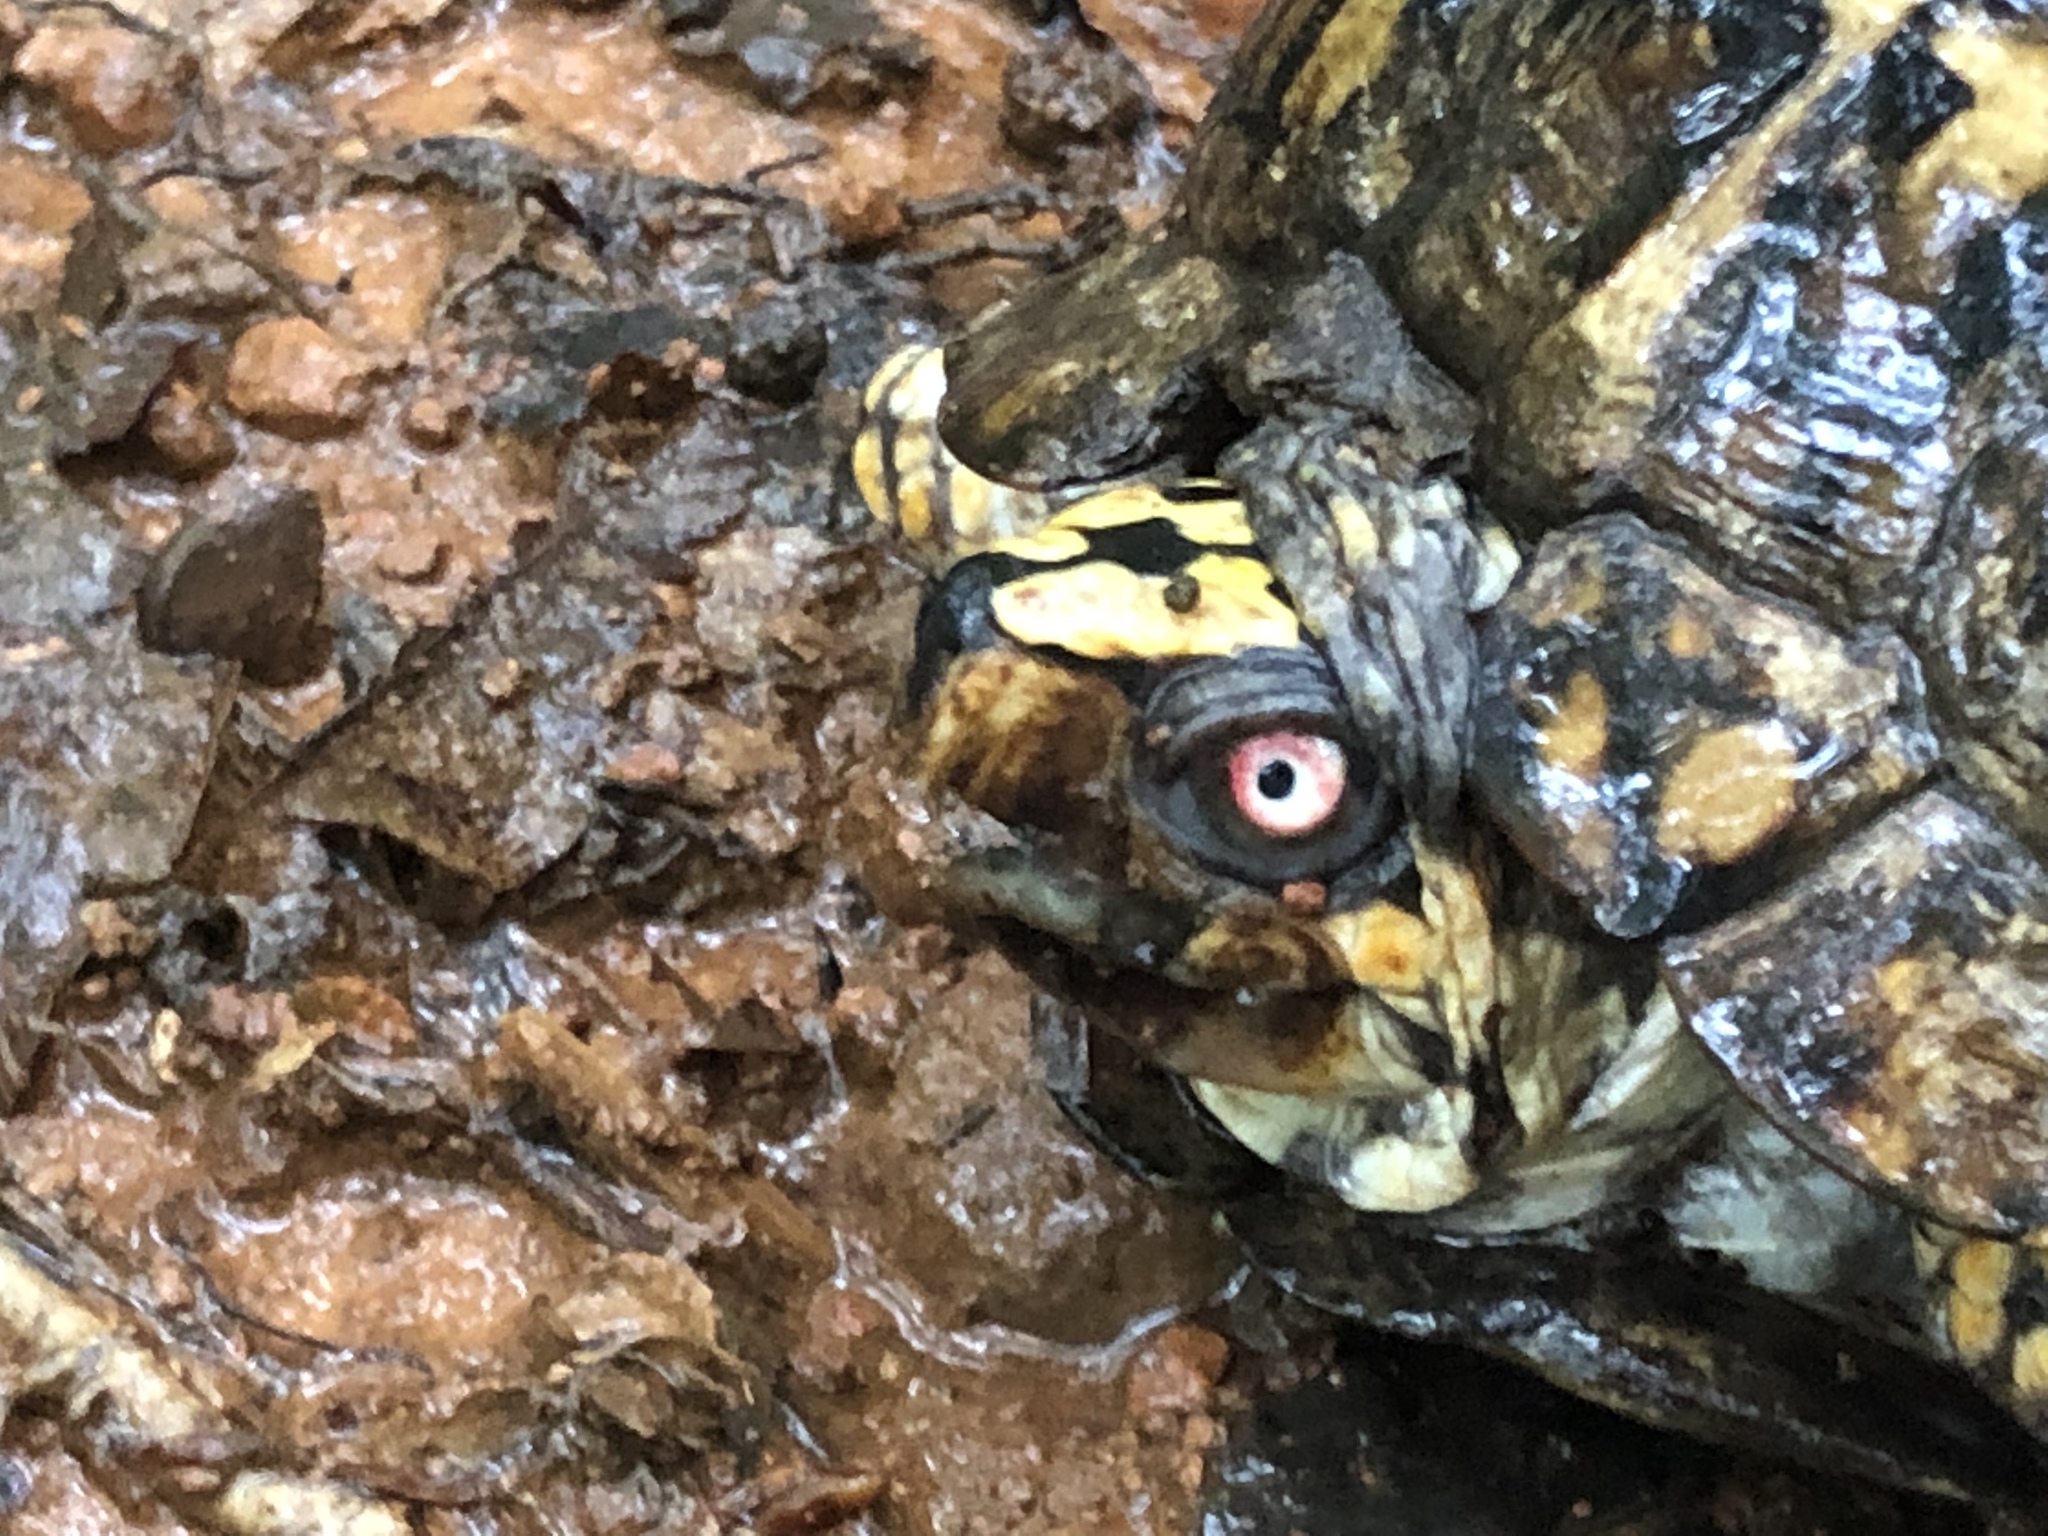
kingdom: Animalia
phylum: Chordata
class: Testudines
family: Emydidae
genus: Terrapene
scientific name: Terrapene carolina
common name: Common box turtle
